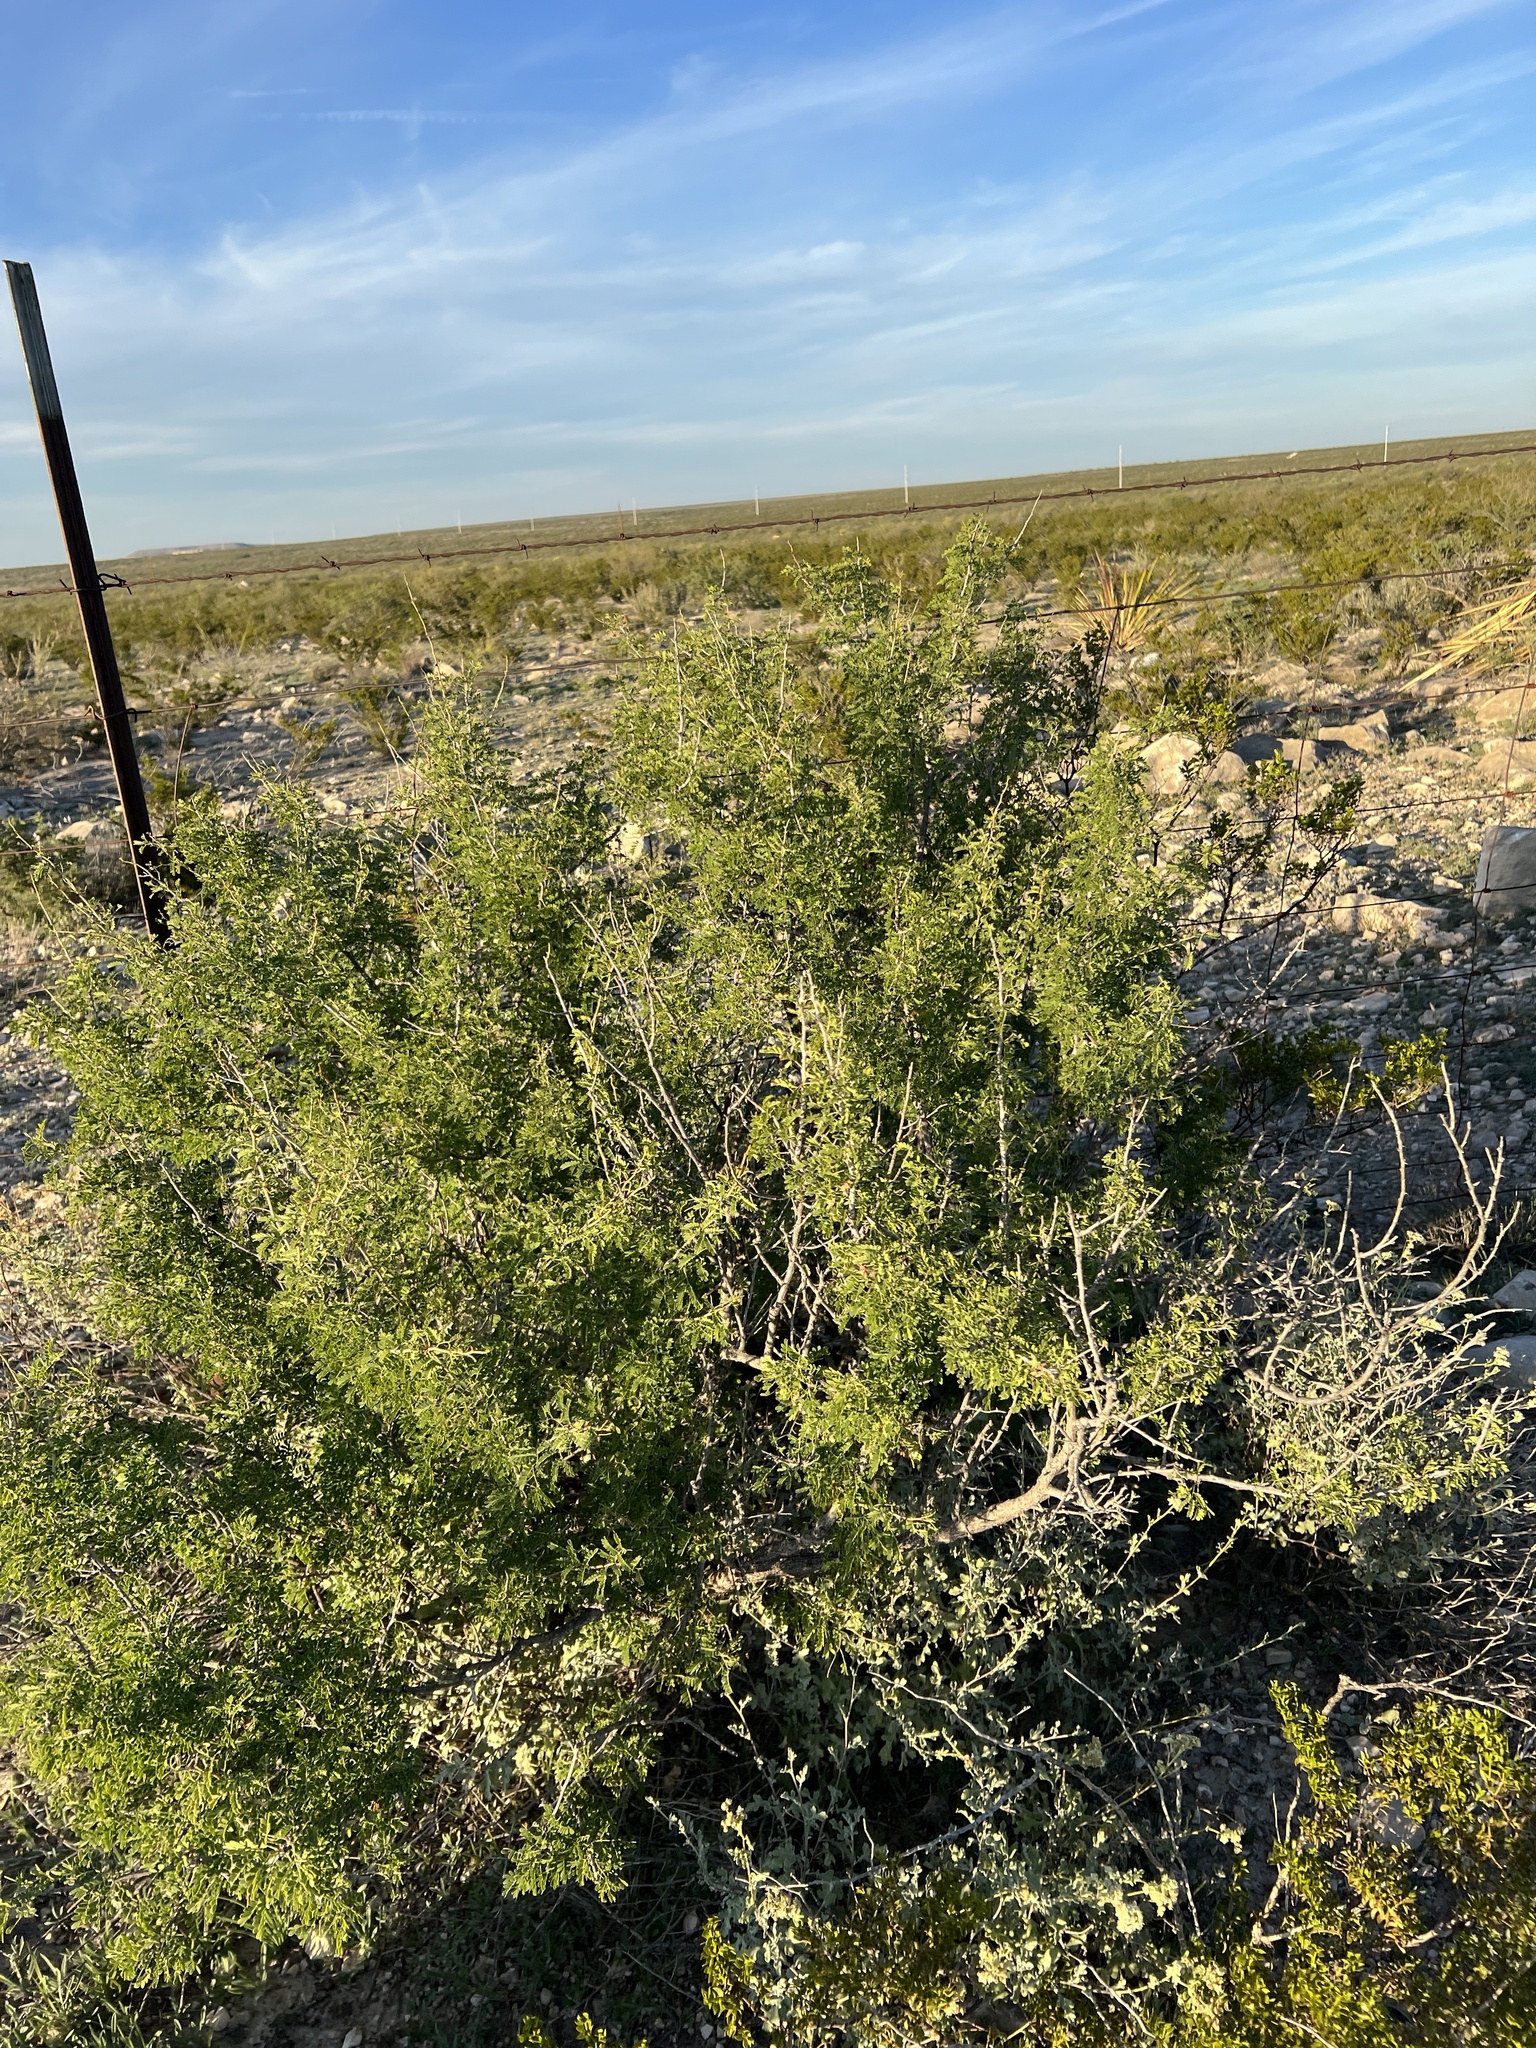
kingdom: Plantae
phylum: Tracheophyta
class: Magnoliopsida
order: Zygophyllales
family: Zygophyllaceae
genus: Larrea
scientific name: Larrea tridentata
